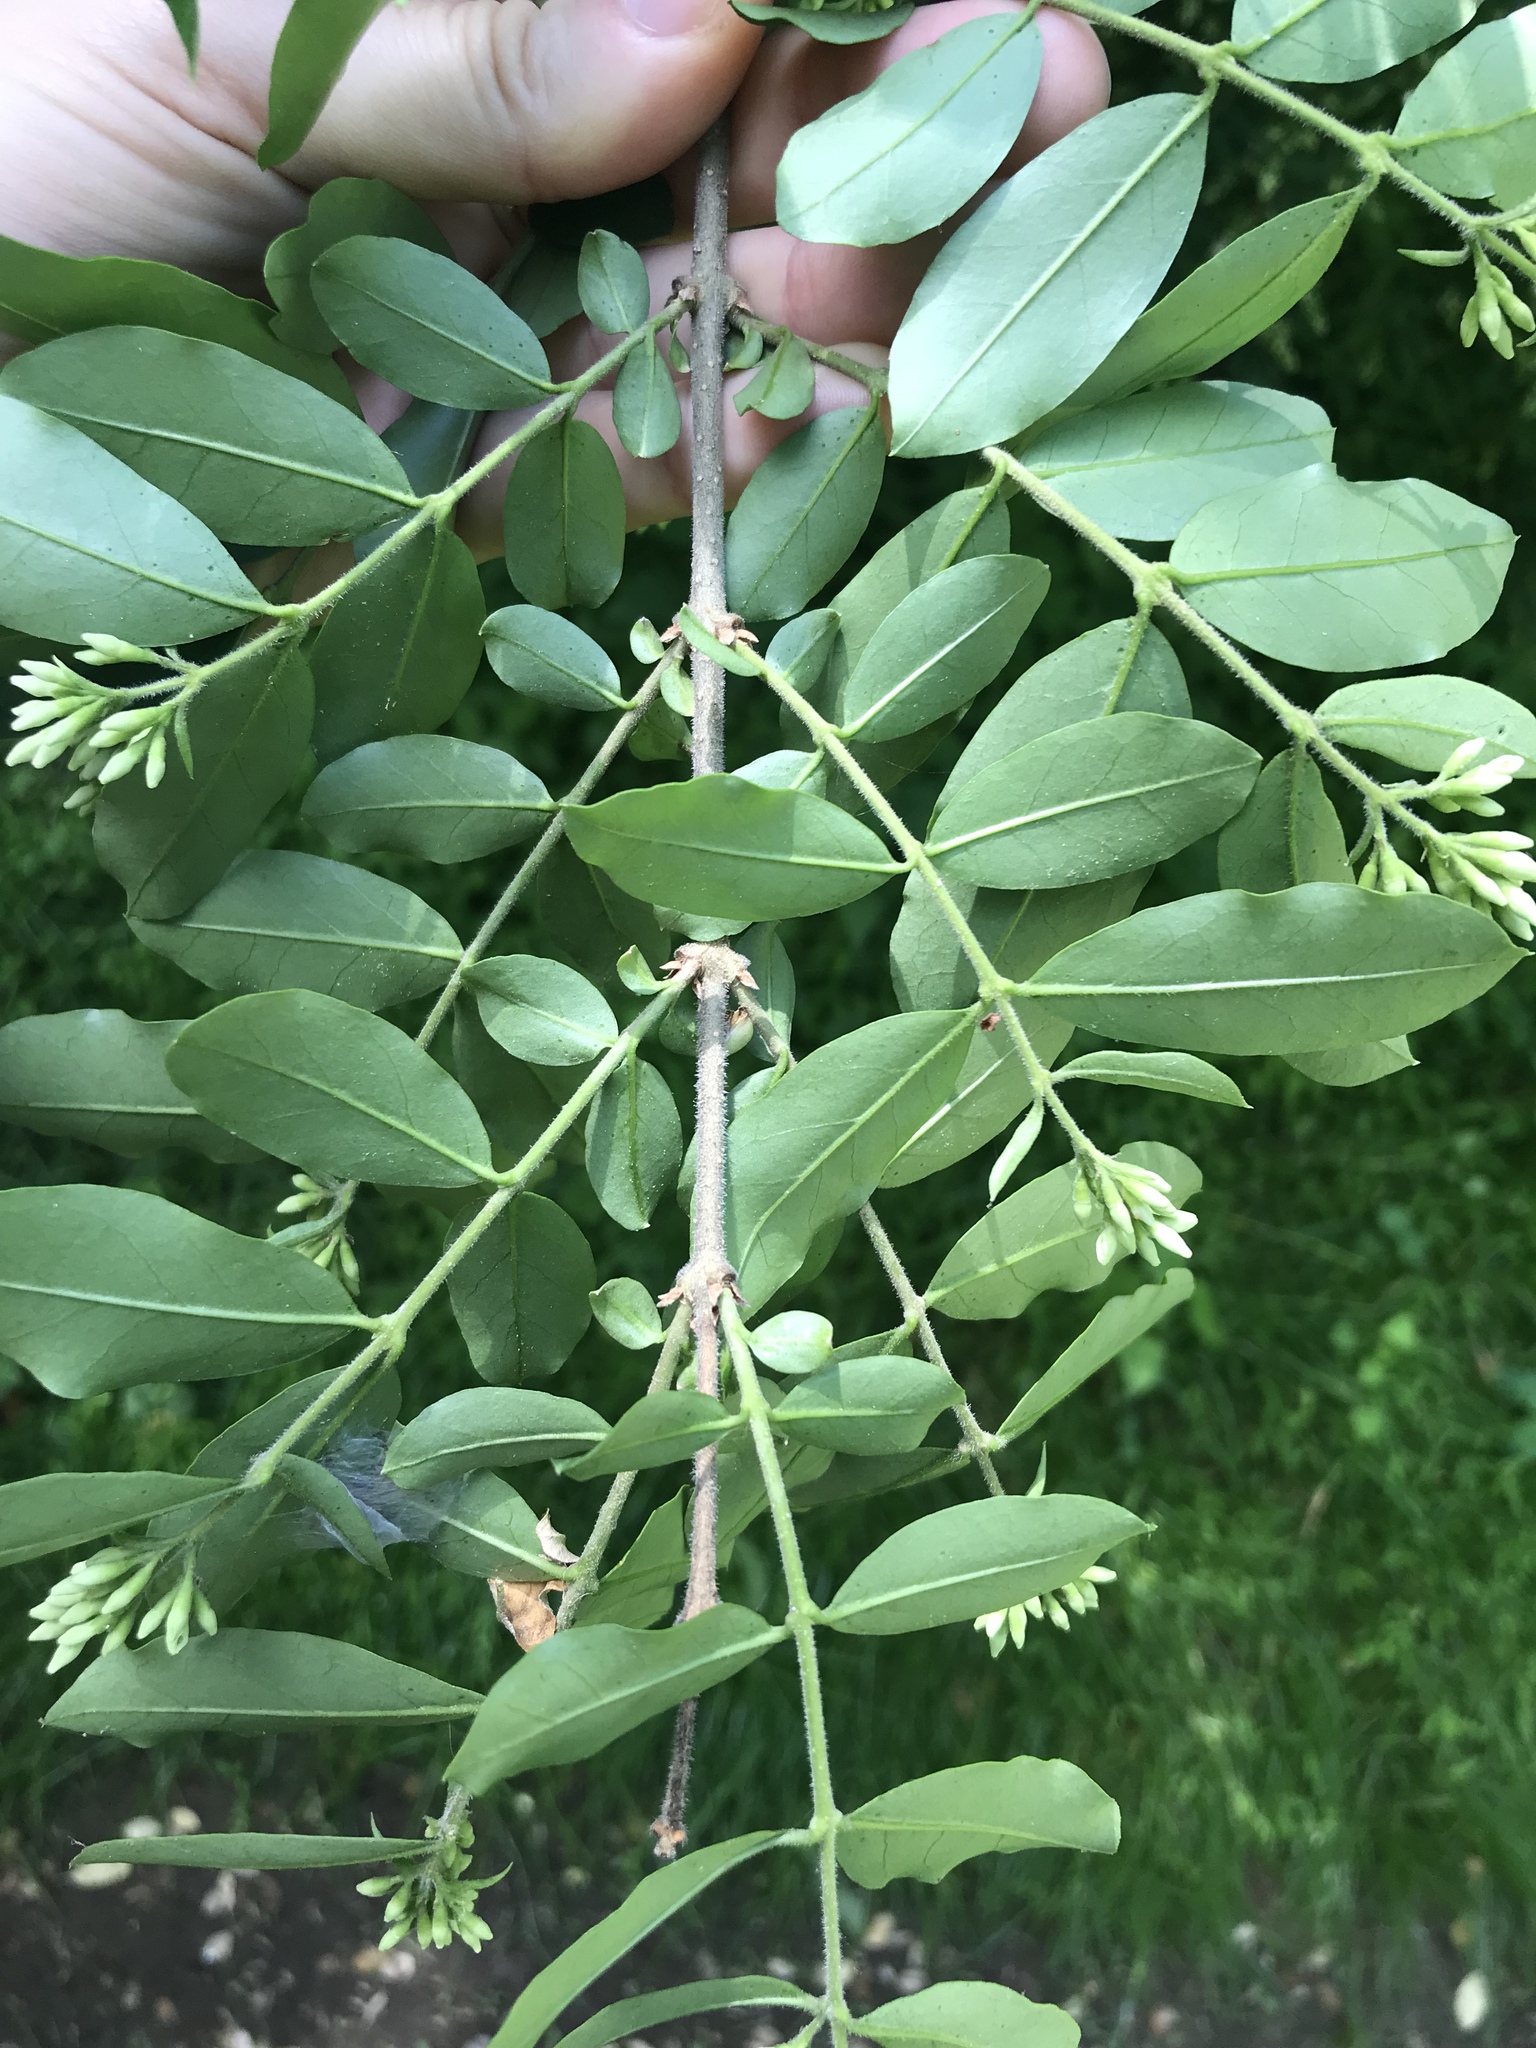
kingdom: Plantae
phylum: Tracheophyta
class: Magnoliopsida
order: Lamiales
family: Oleaceae
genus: Ligustrum
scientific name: Ligustrum obtusifolium
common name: Border privet
